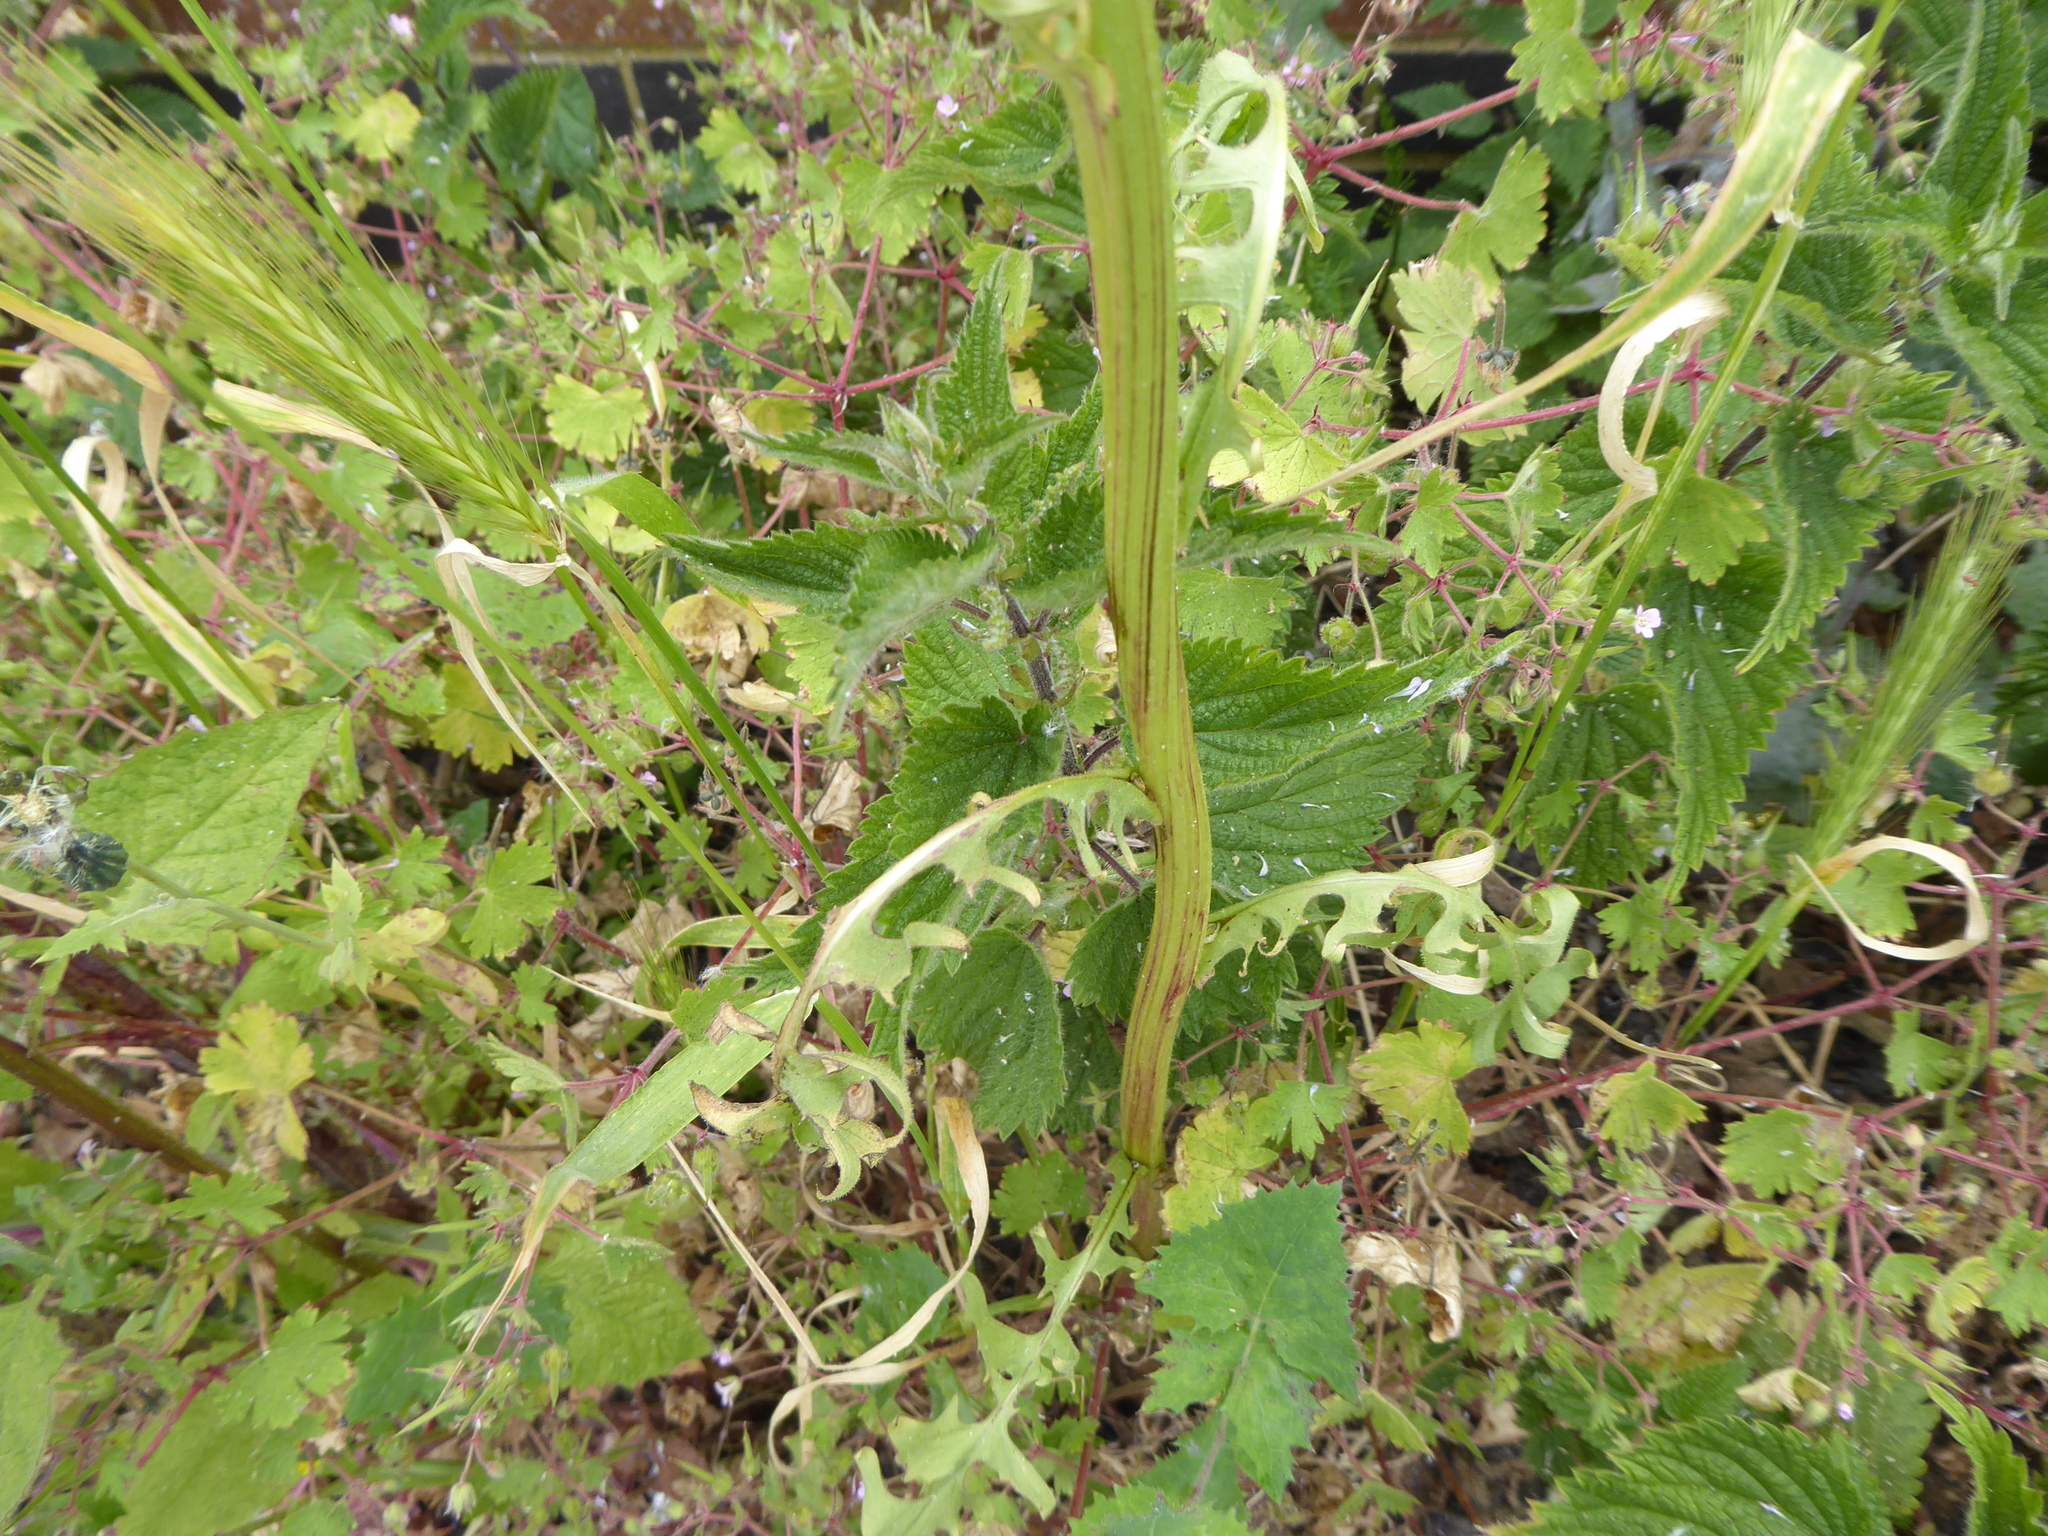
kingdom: Plantae
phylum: Tracheophyta
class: Magnoliopsida
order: Rosales
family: Urticaceae
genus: Urtica
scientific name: Urtica dioica
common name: Common nettle
